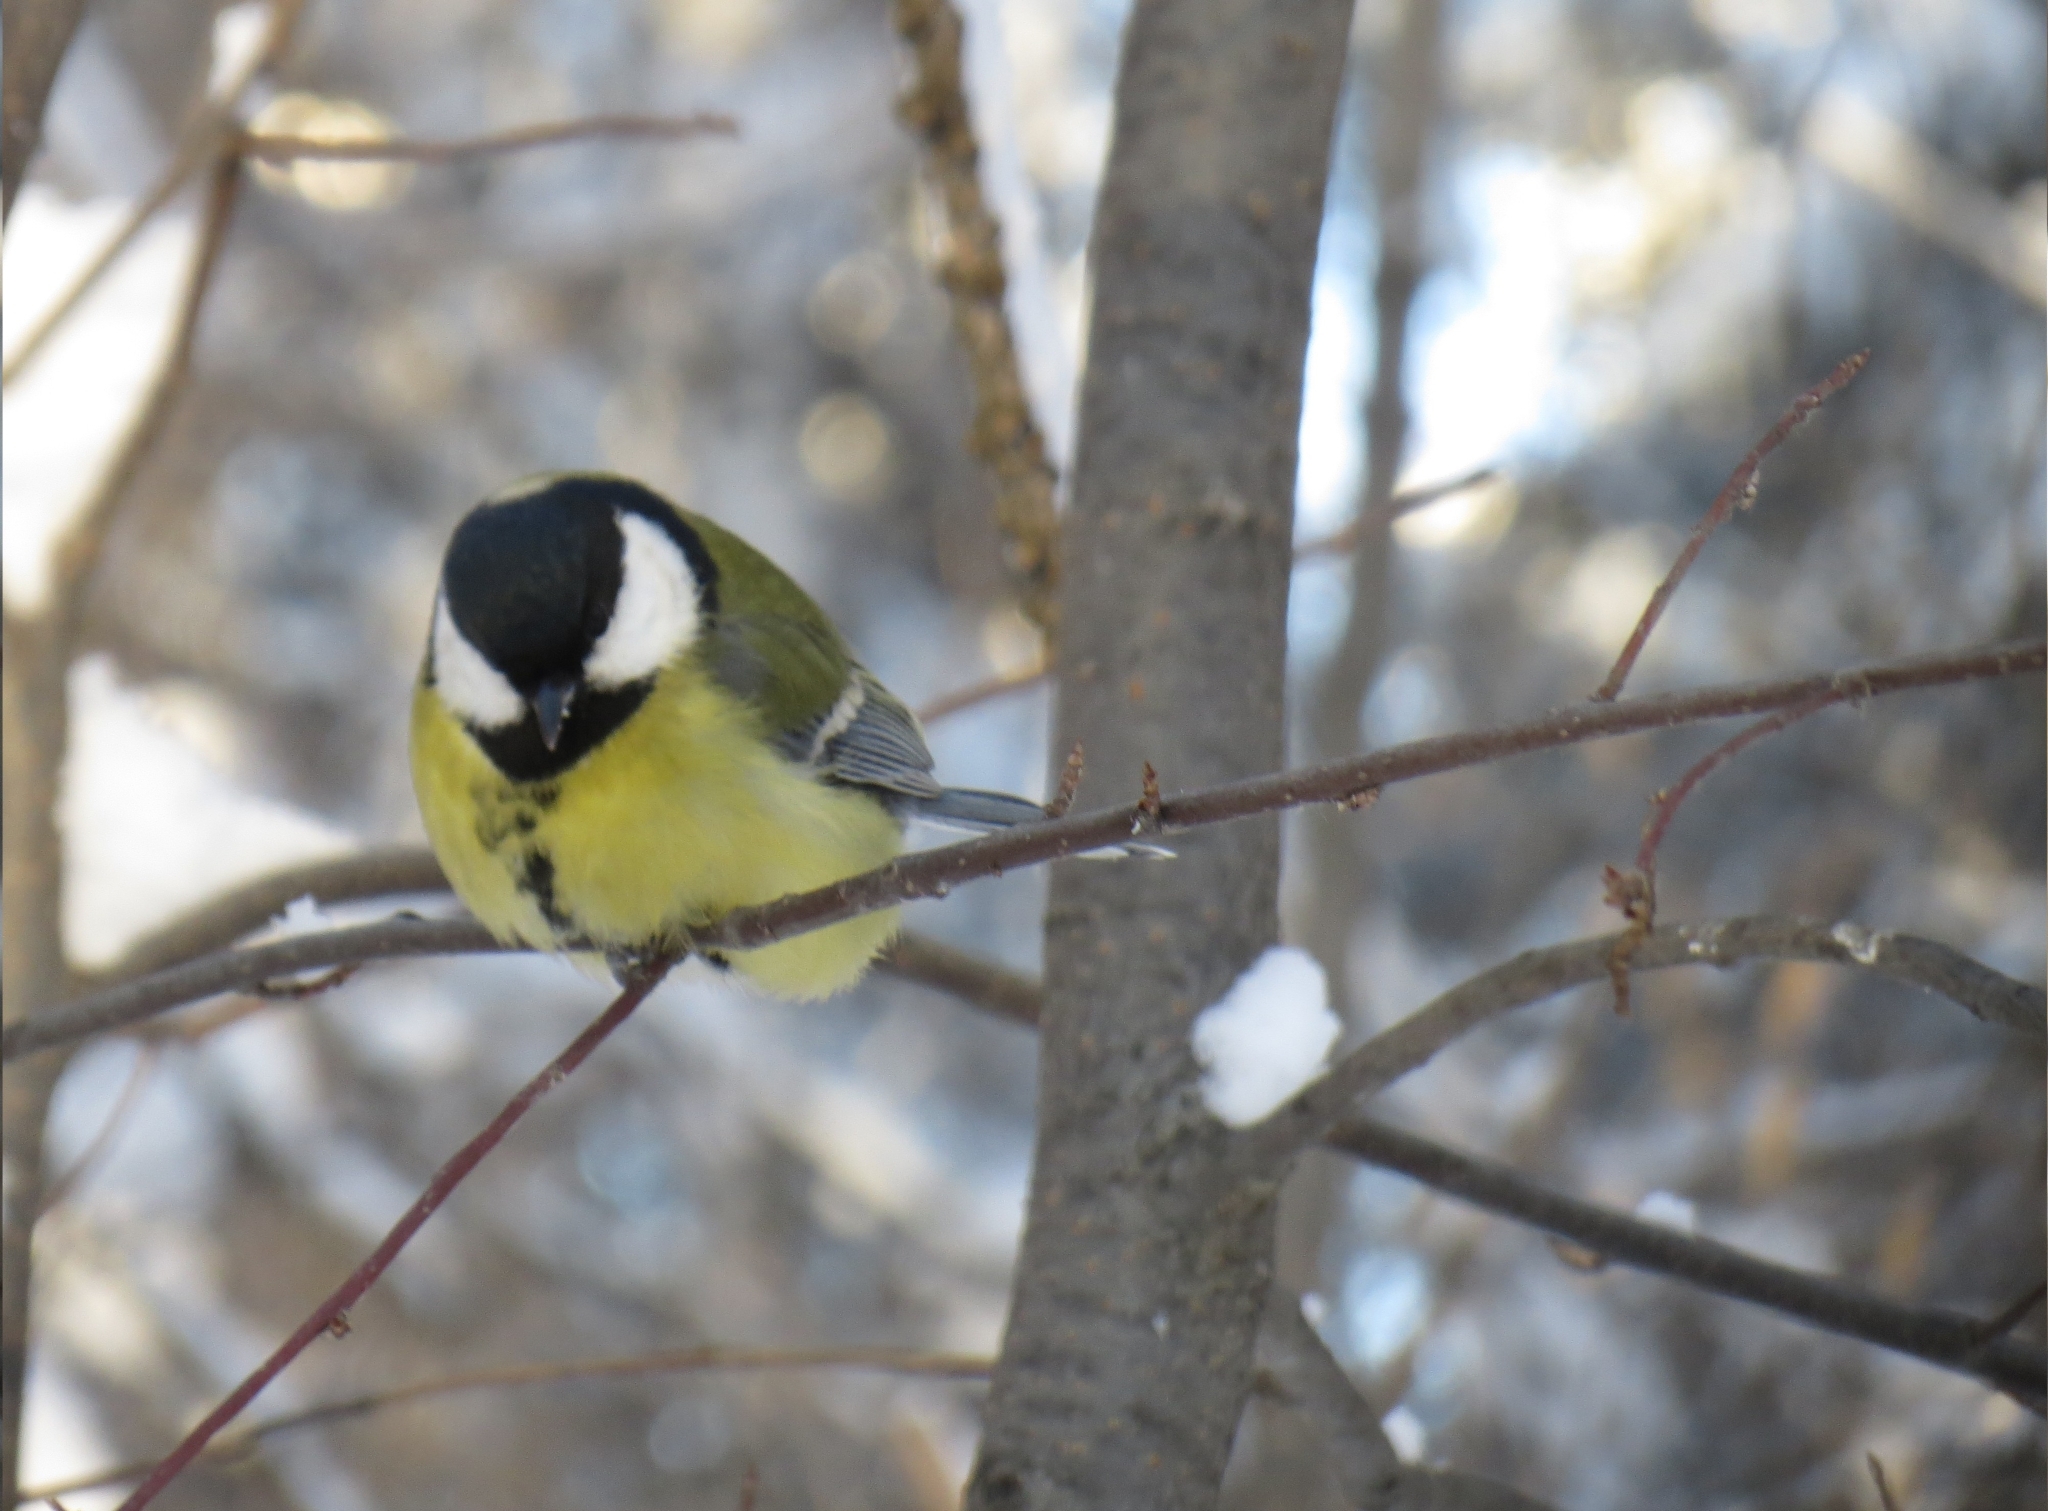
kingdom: Animalia
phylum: Chordata
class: Aves
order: Passeriformes
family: Paridae
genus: Parus
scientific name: Parus major
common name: Great tit
